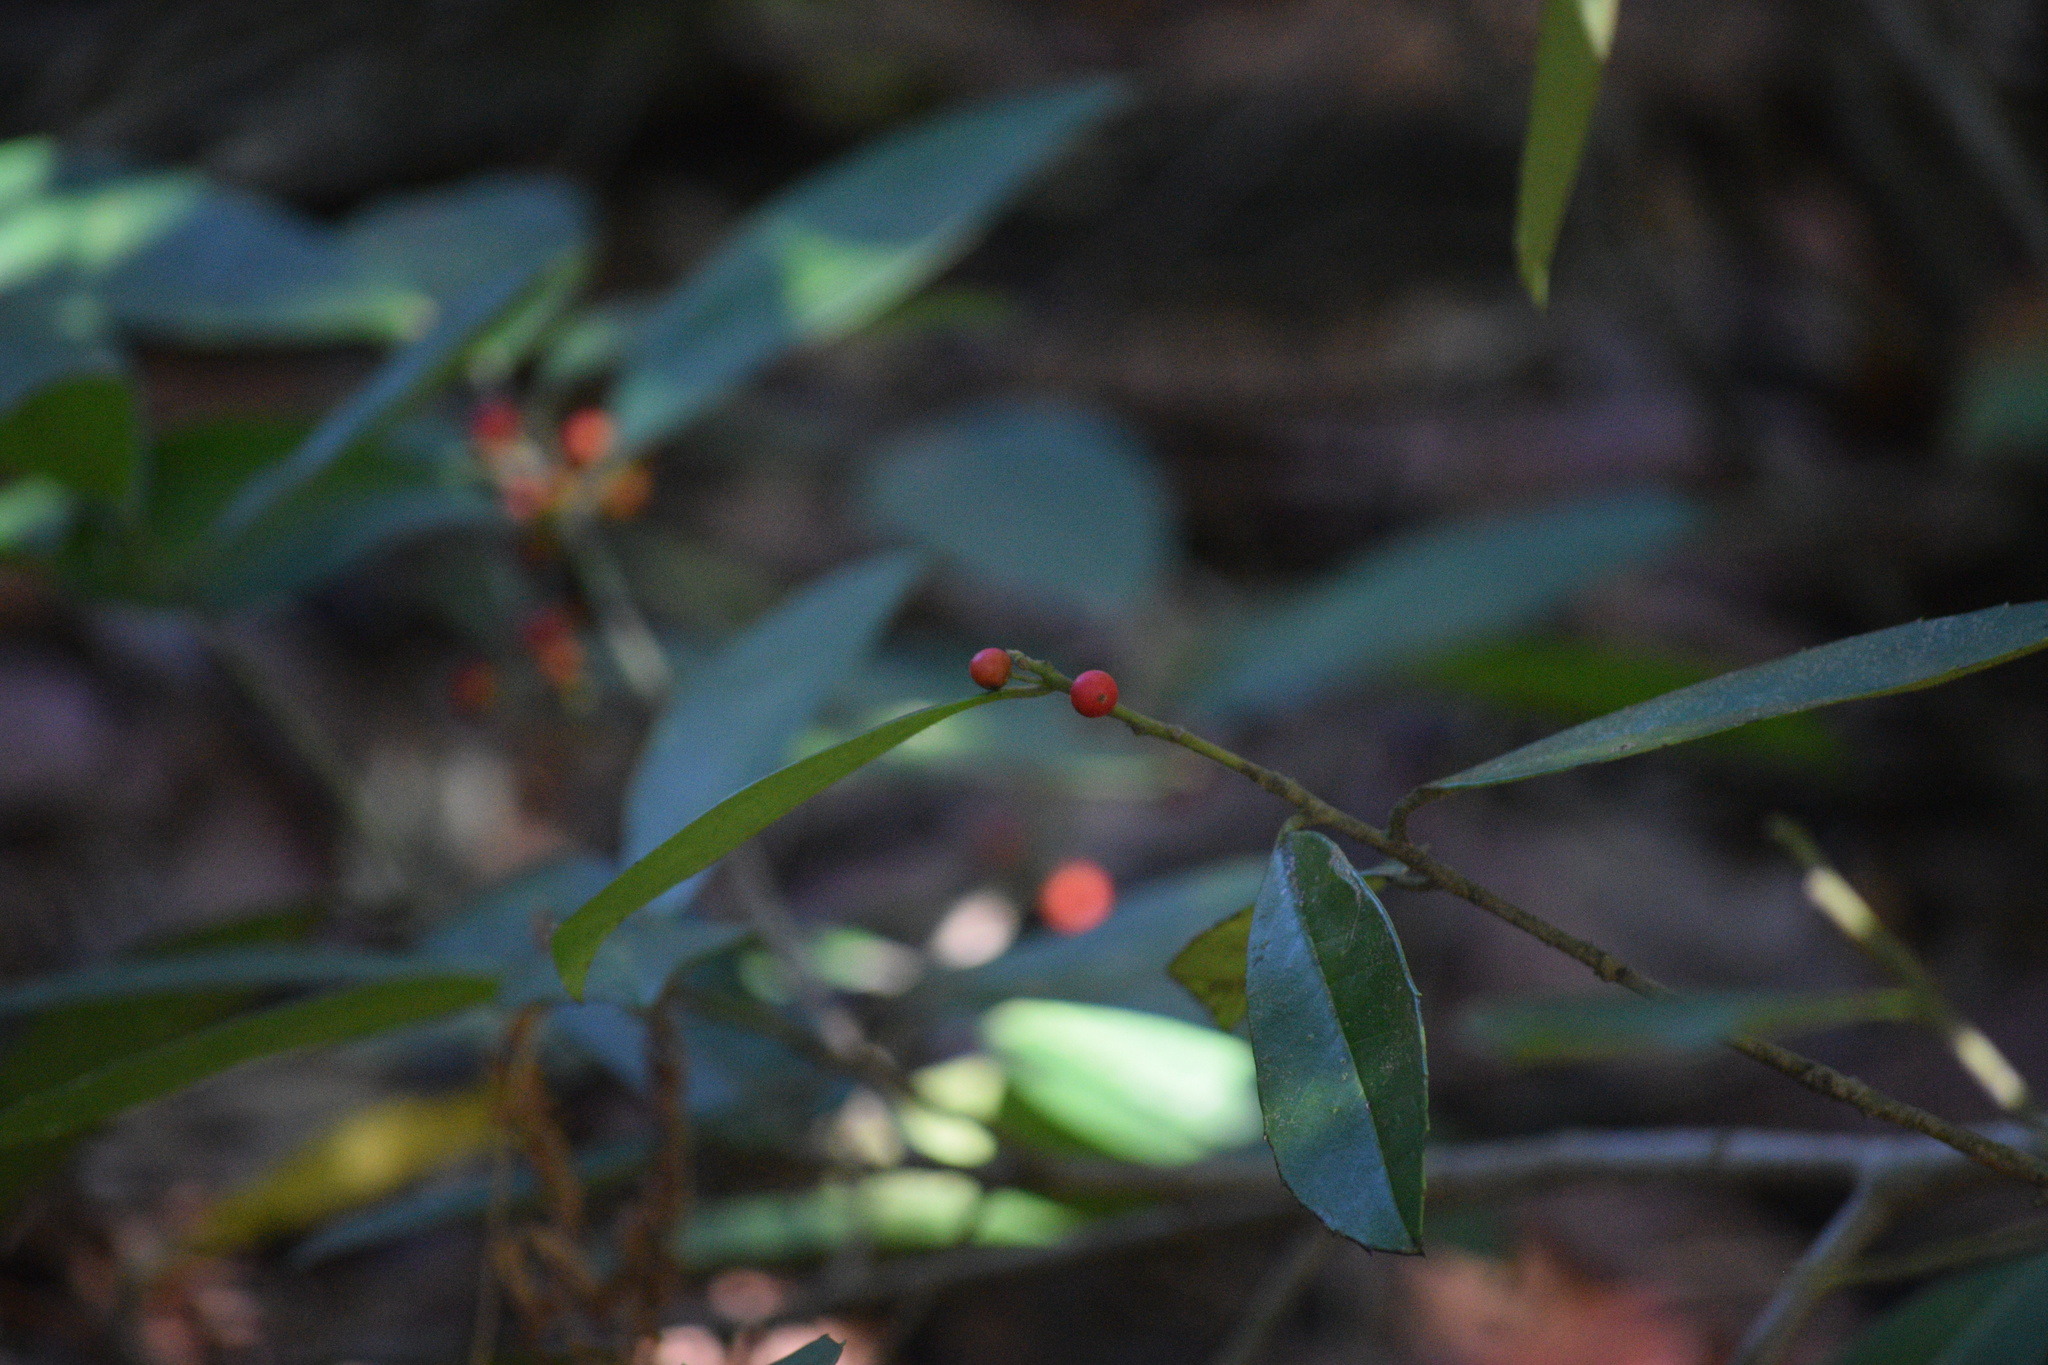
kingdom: Plantae
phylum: Tracheophyta
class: Magnoliopsida
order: Aquifoliales
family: Aquifoliaceae
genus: Ilex
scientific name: Ilex cassine
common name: Dahoon
